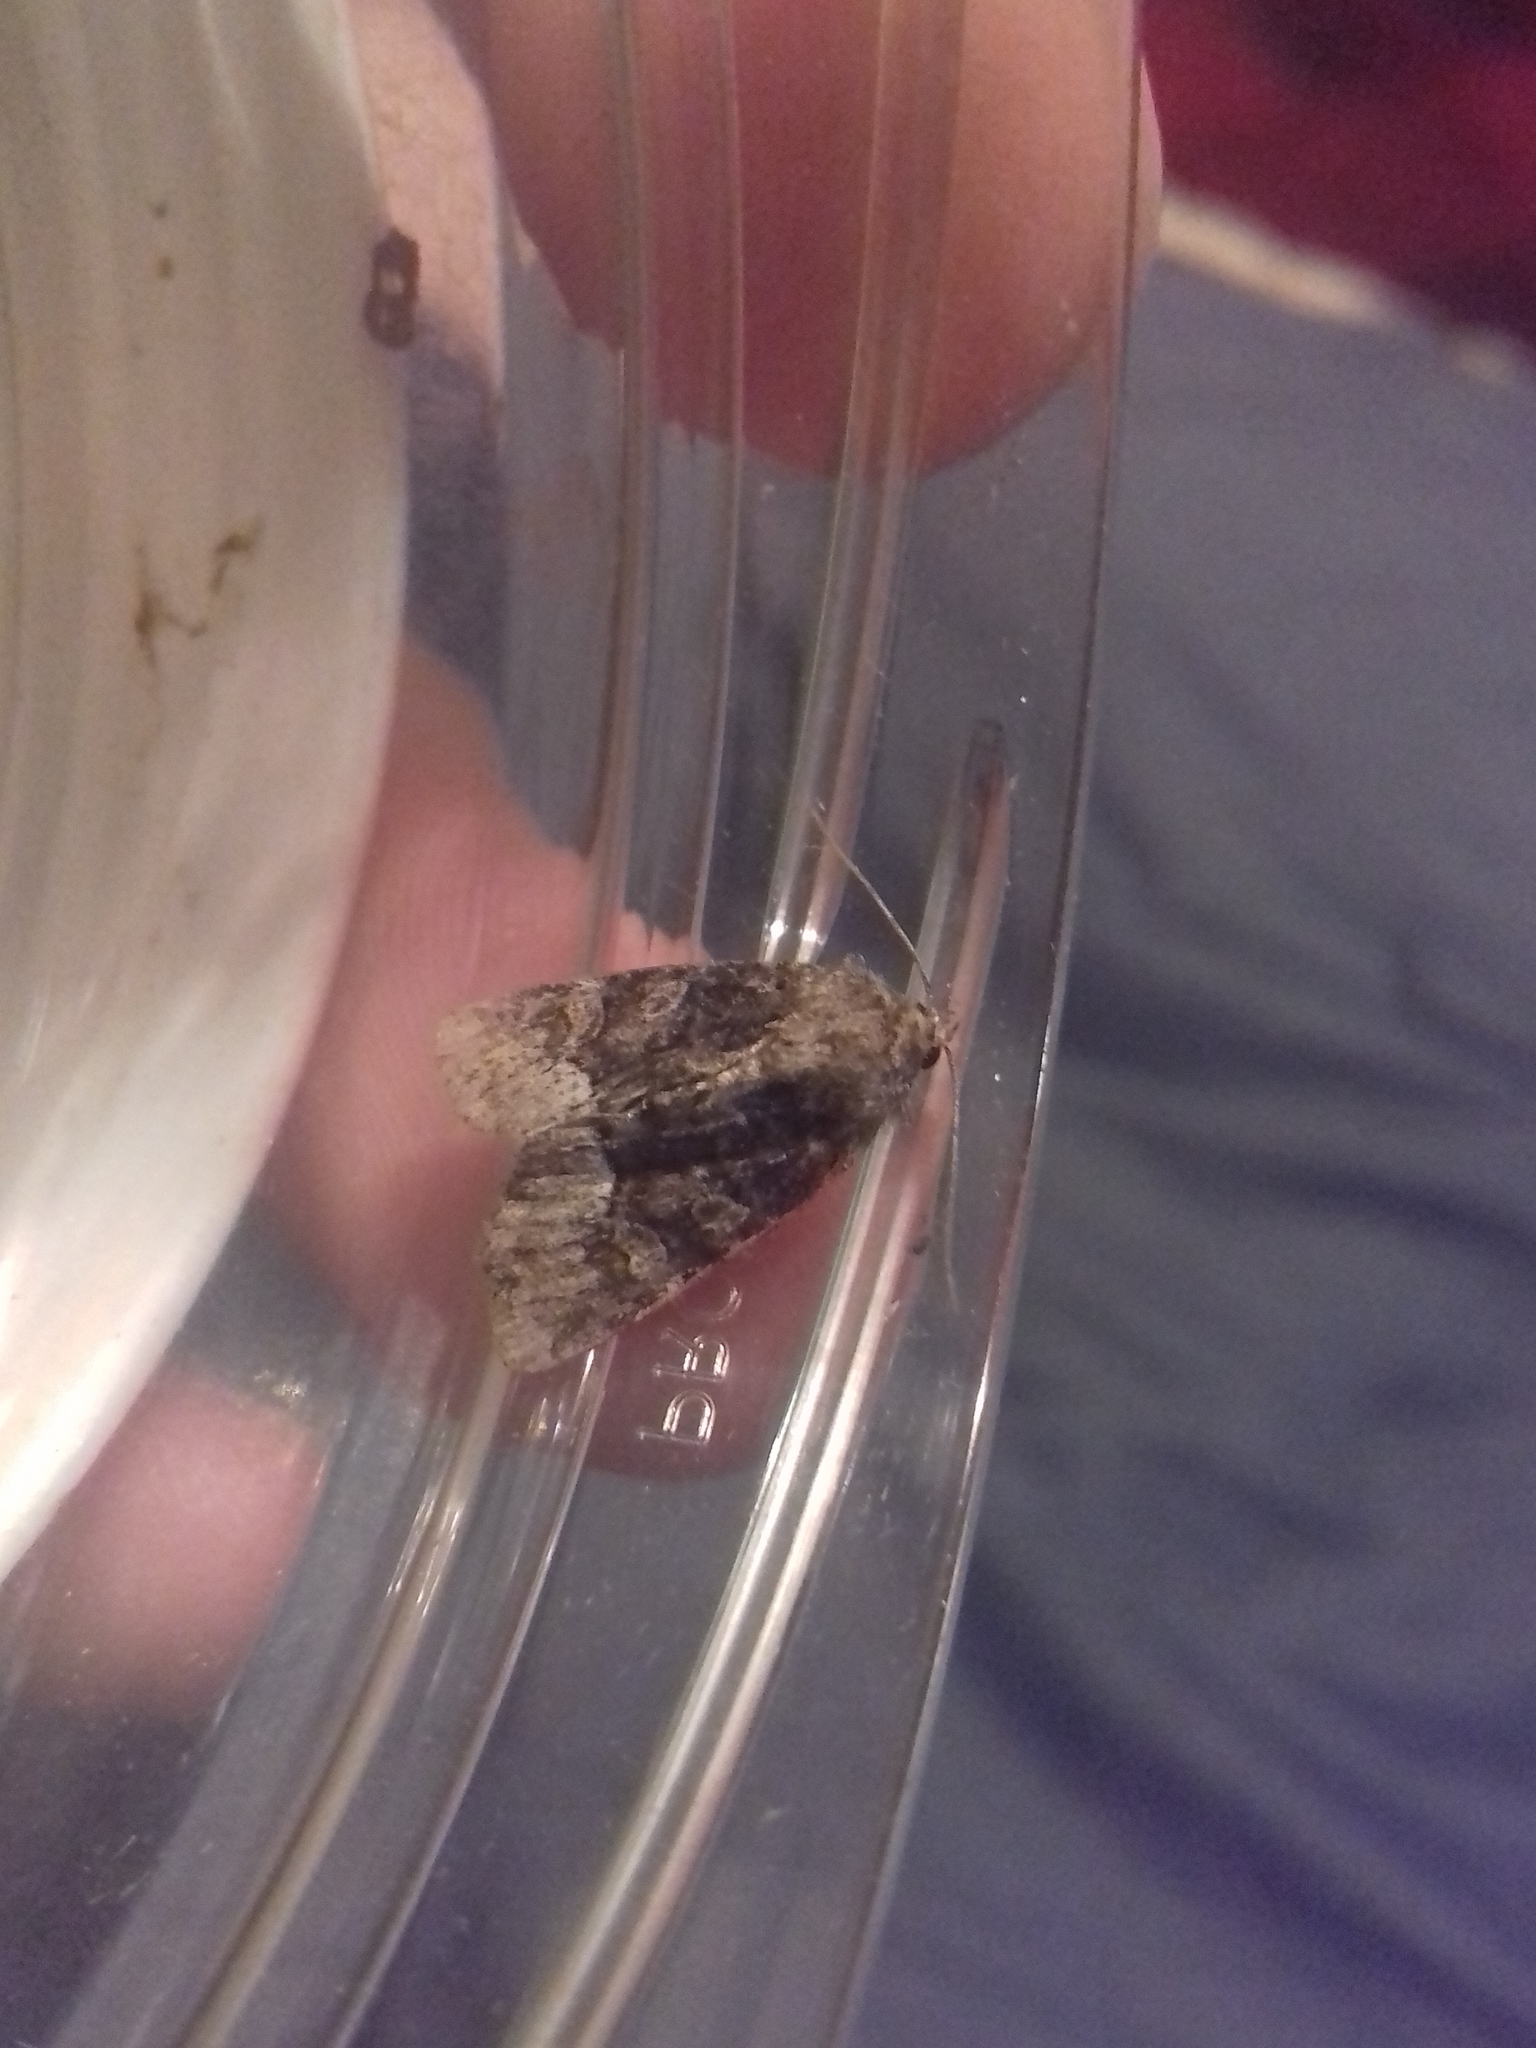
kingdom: Animalia
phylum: Arthropoda
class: Insecta
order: Lepidoptera
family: Noctuidae
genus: Oligia
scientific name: Oligia strigilis
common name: Marbled minor
